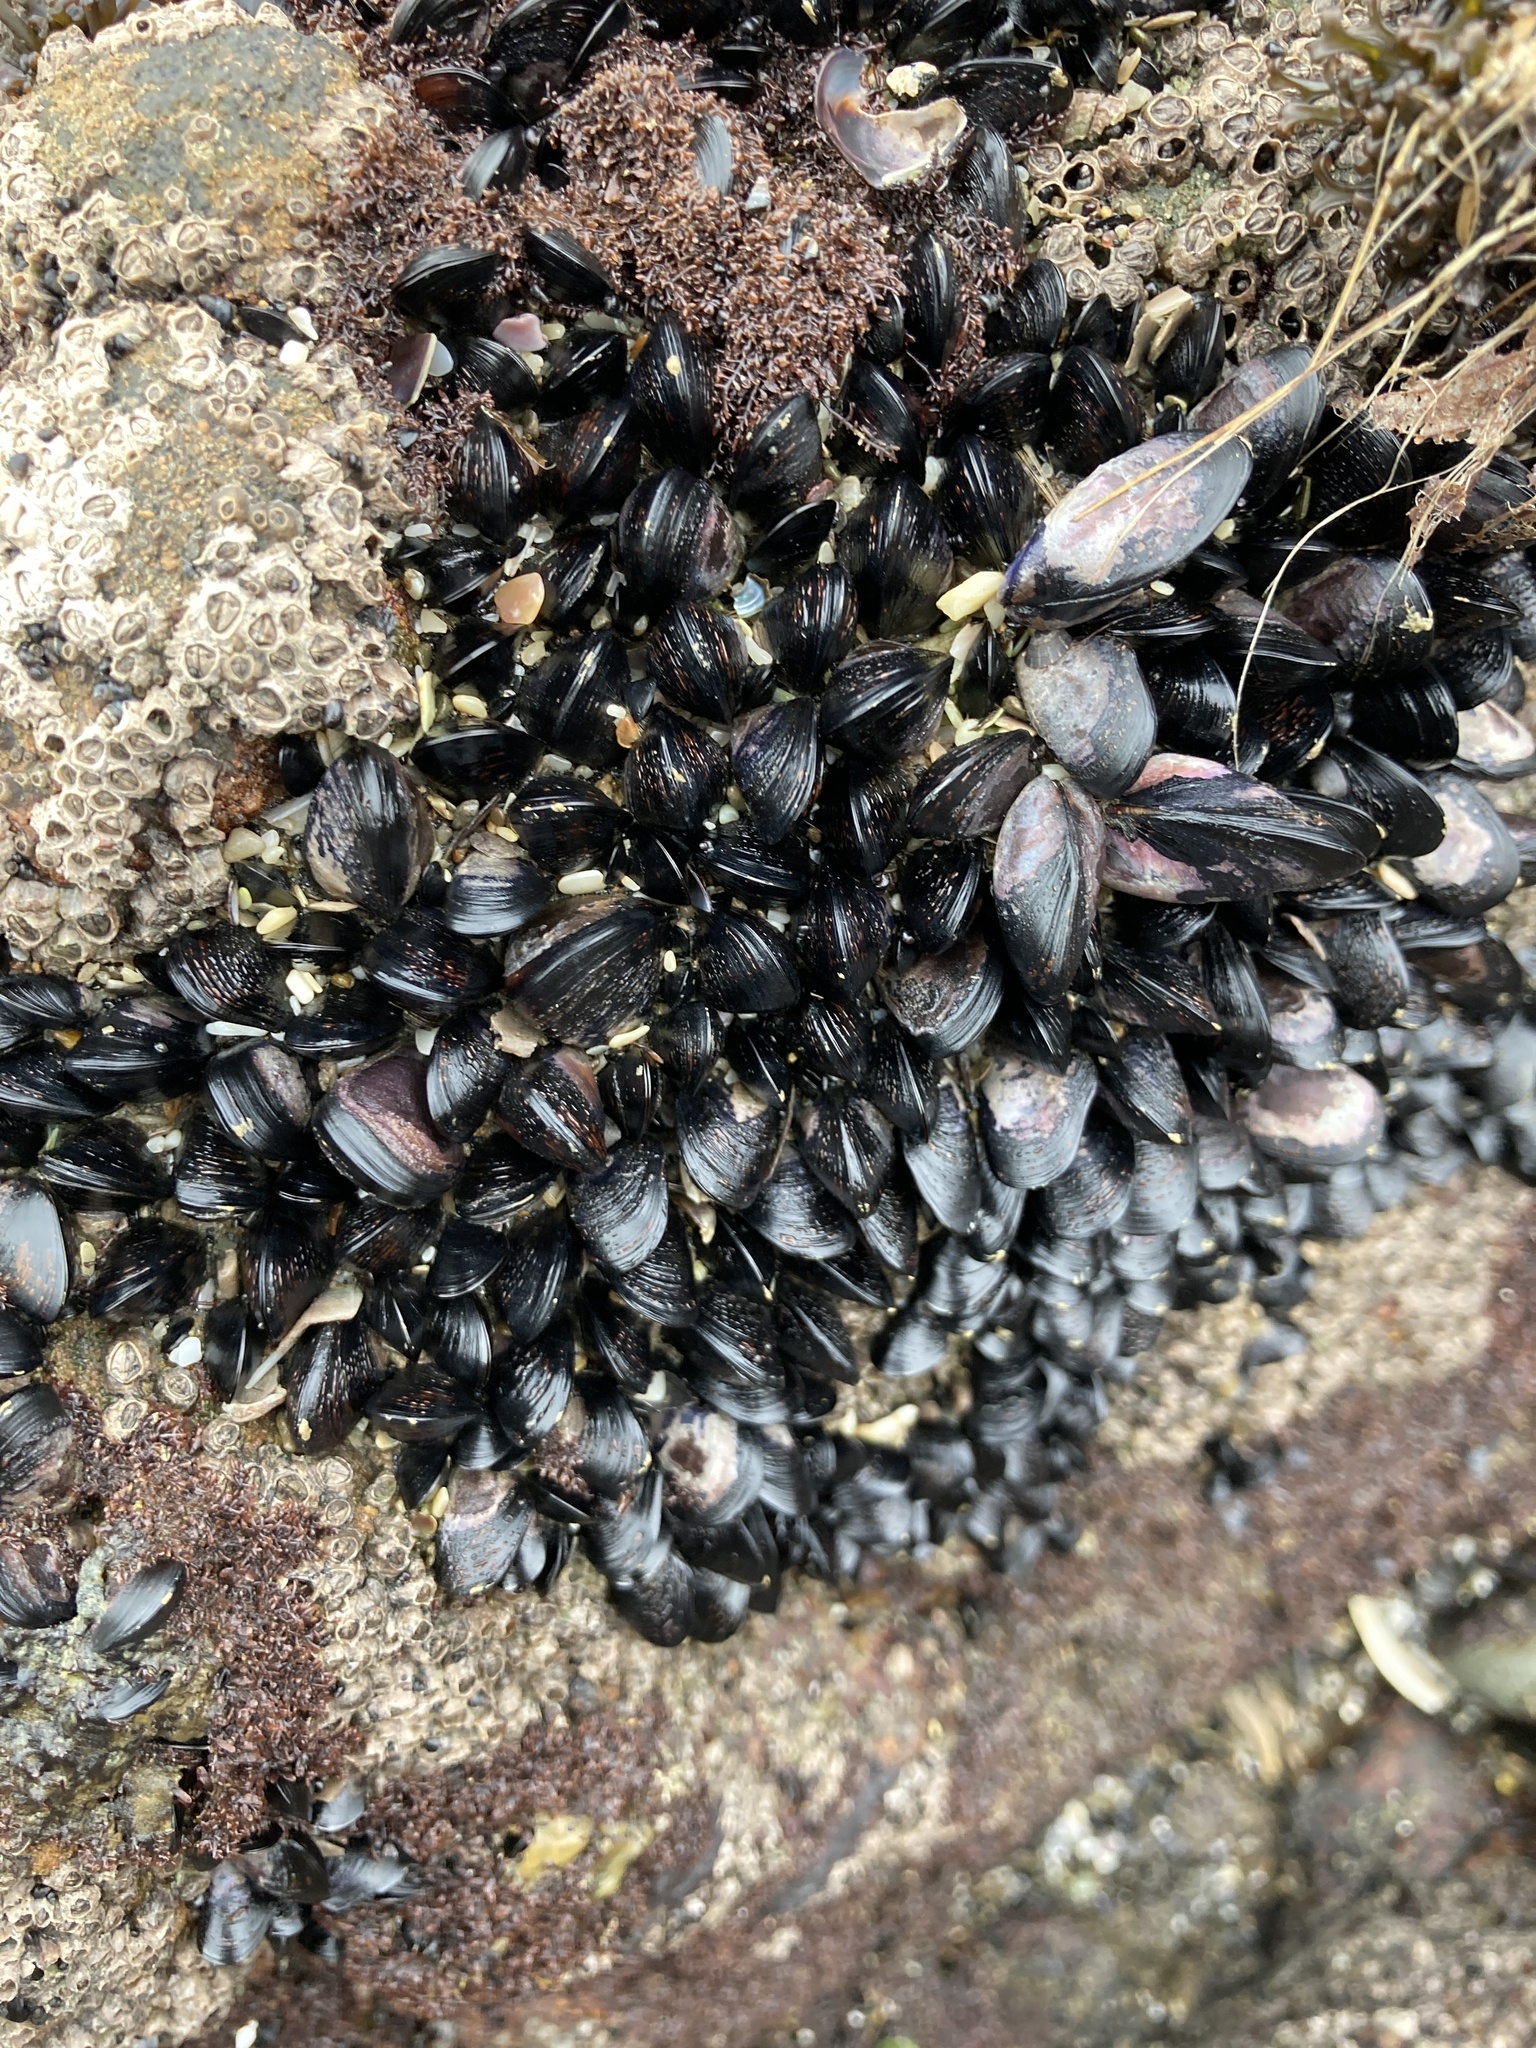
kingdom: Animalia
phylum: Mollusca
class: Bivalvia
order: Mytilida
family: Mytilidae
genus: Xenostrobus
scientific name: Xenostrobus neozelanicus
